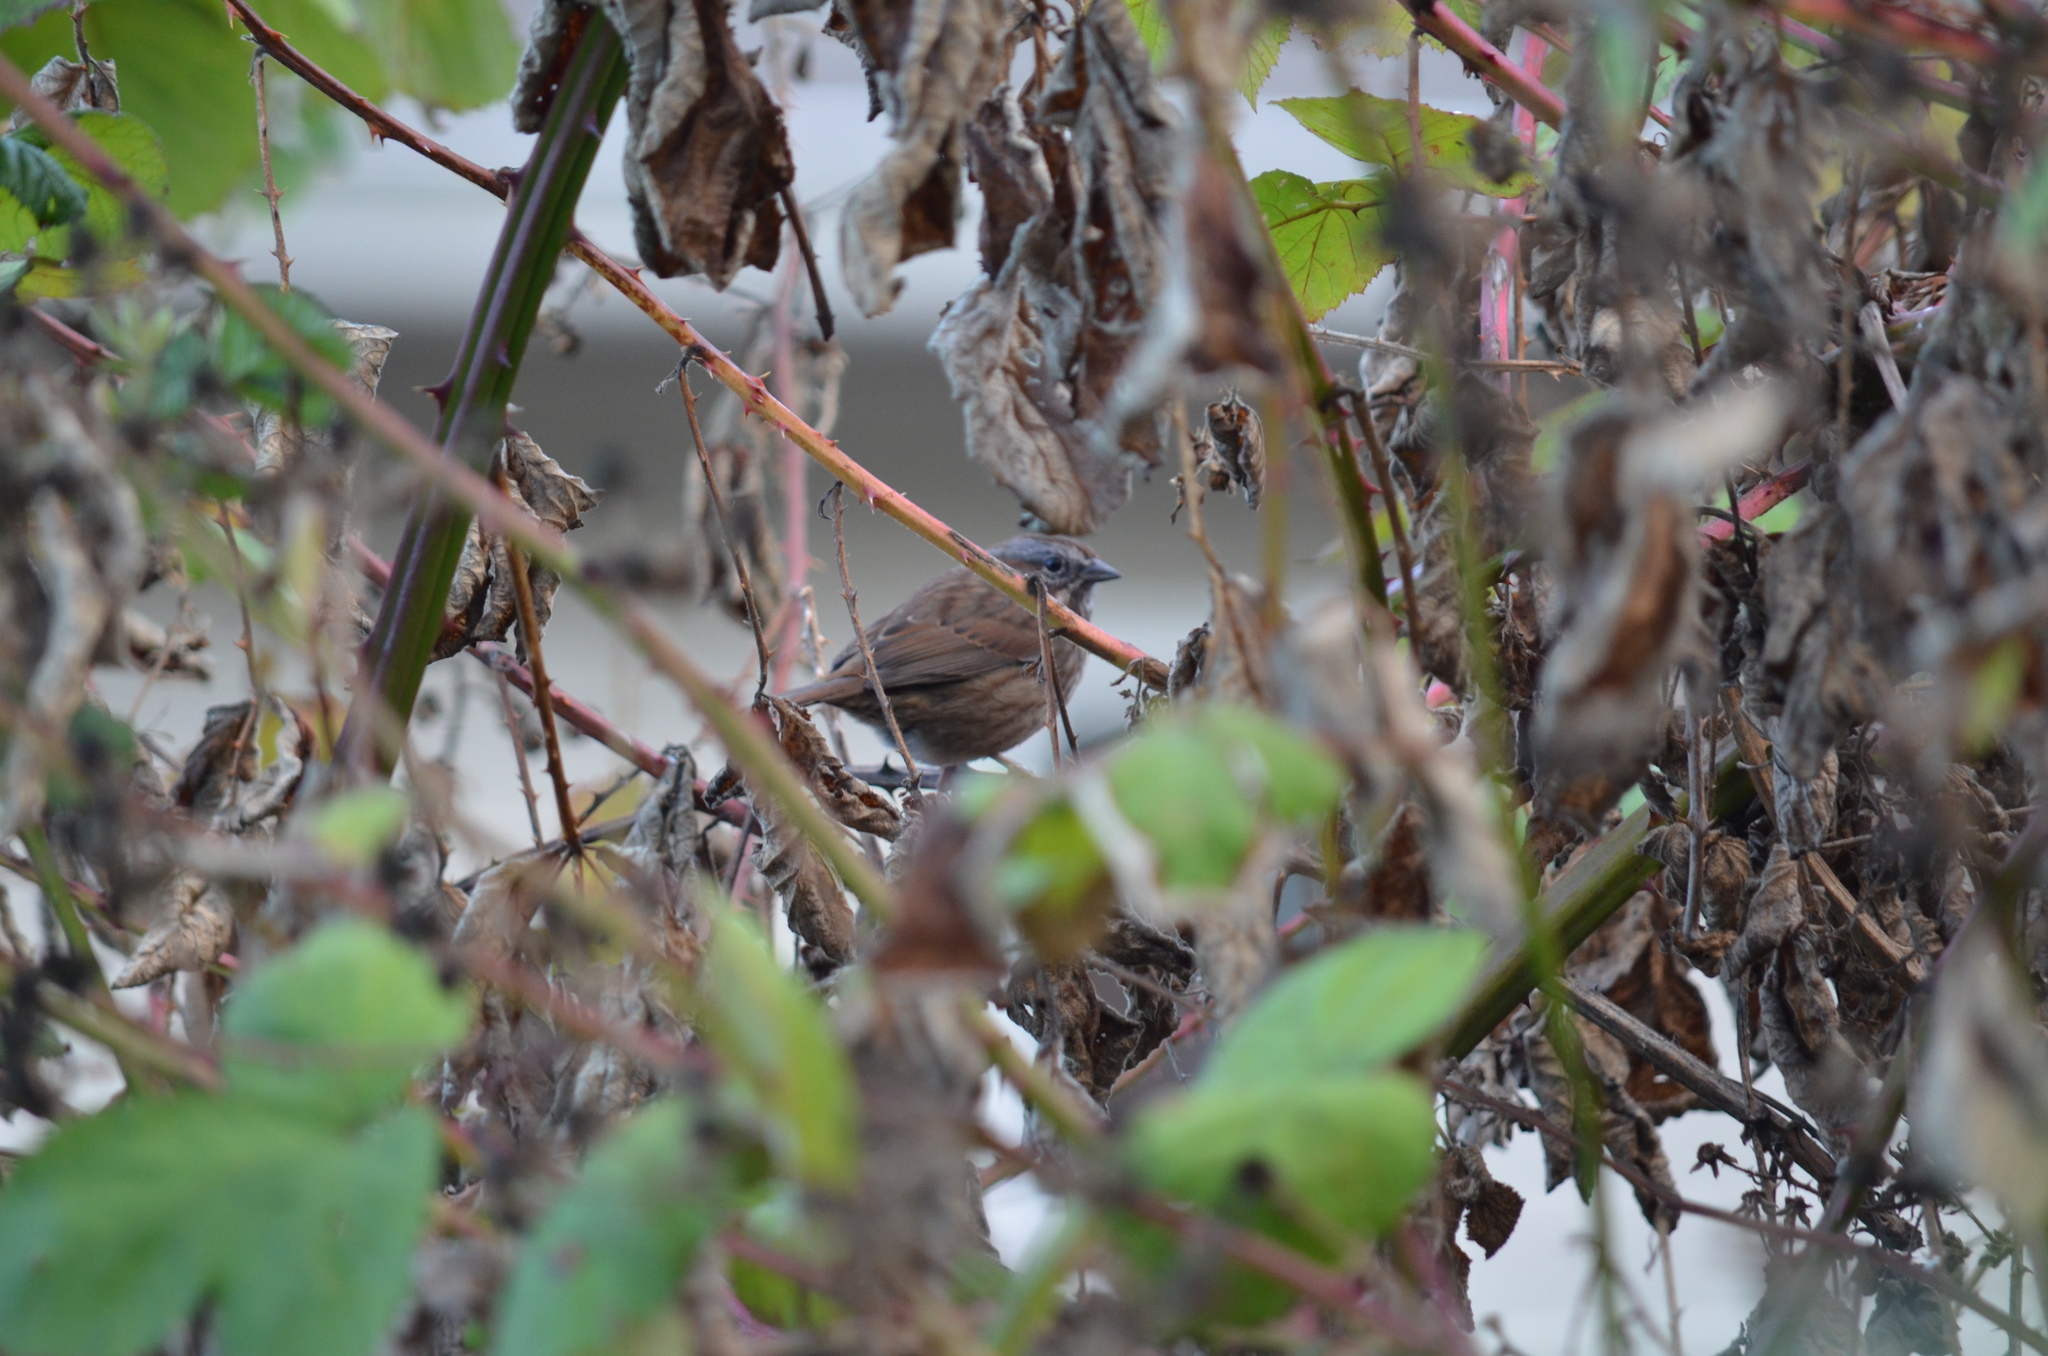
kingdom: Animalia
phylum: Chordata
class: Aves
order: Passeriformes
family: Passerellidae
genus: Melospiza
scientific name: Melospiza melodia
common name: Song sparrow
